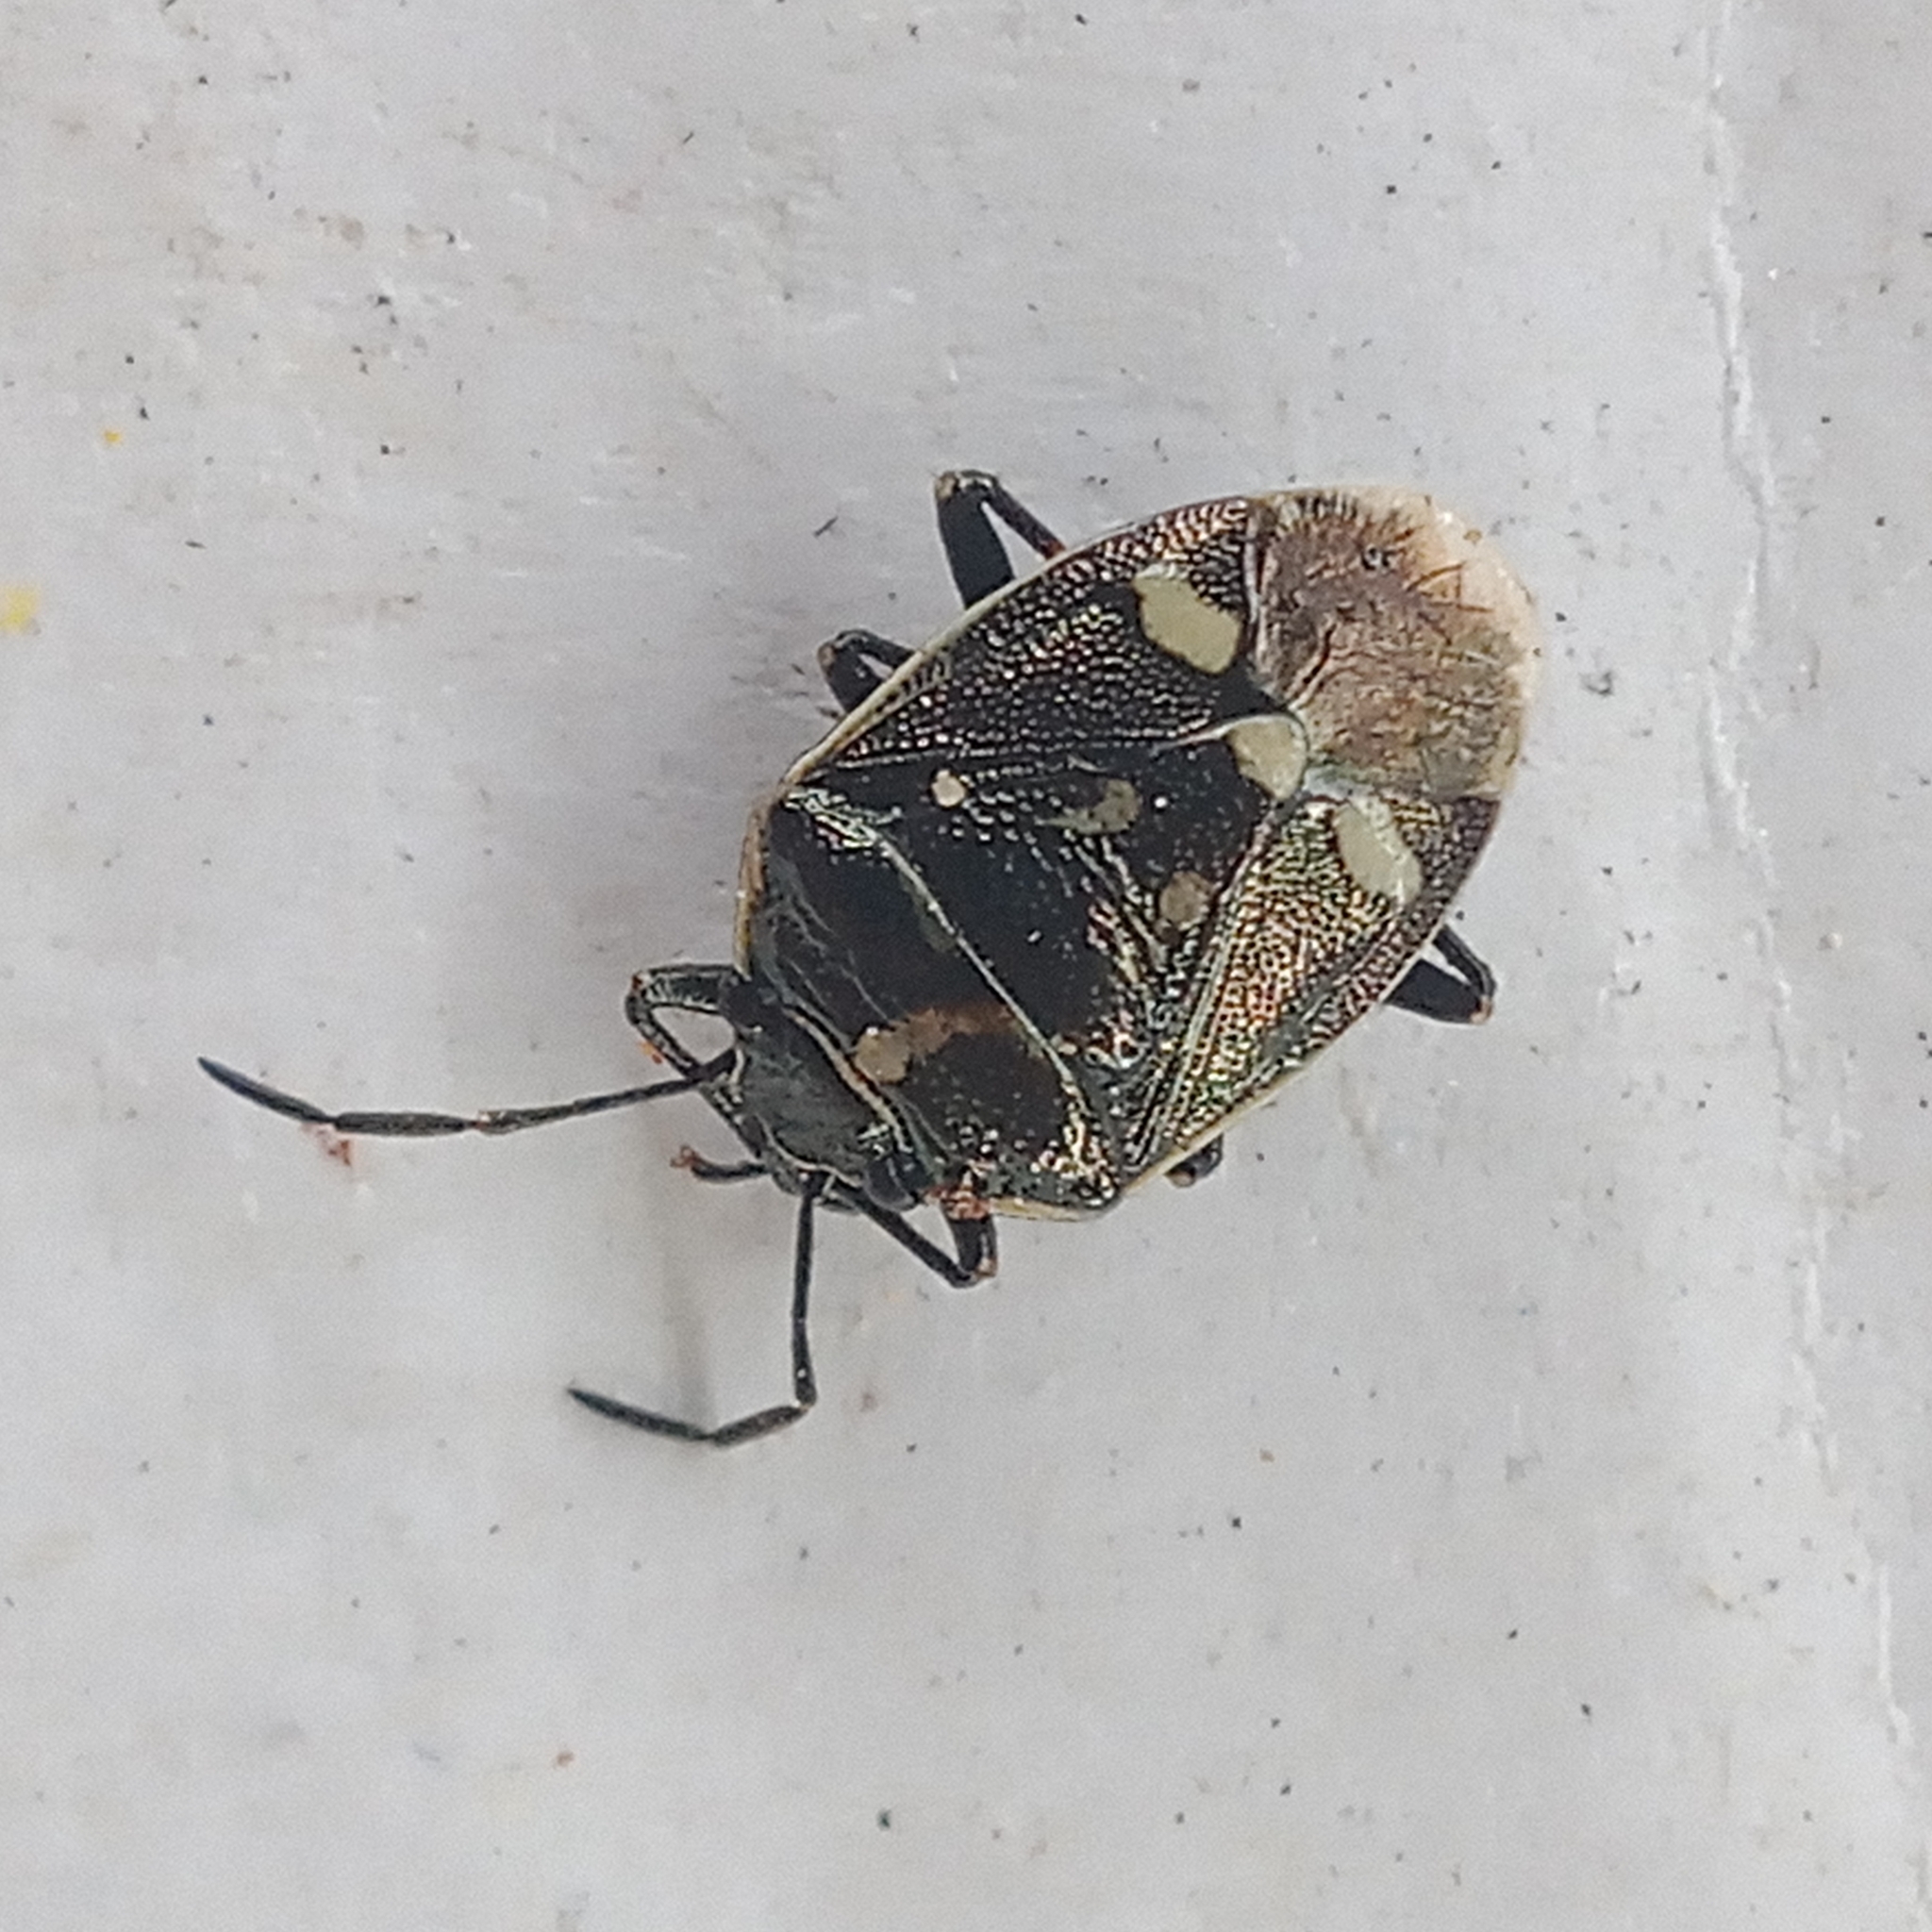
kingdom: Animalia
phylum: Arthropoda
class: Insecta
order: Hemiptera
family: Pentatomidae
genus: Eurydema
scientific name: Eurydema oleracea
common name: Cabbage bug
